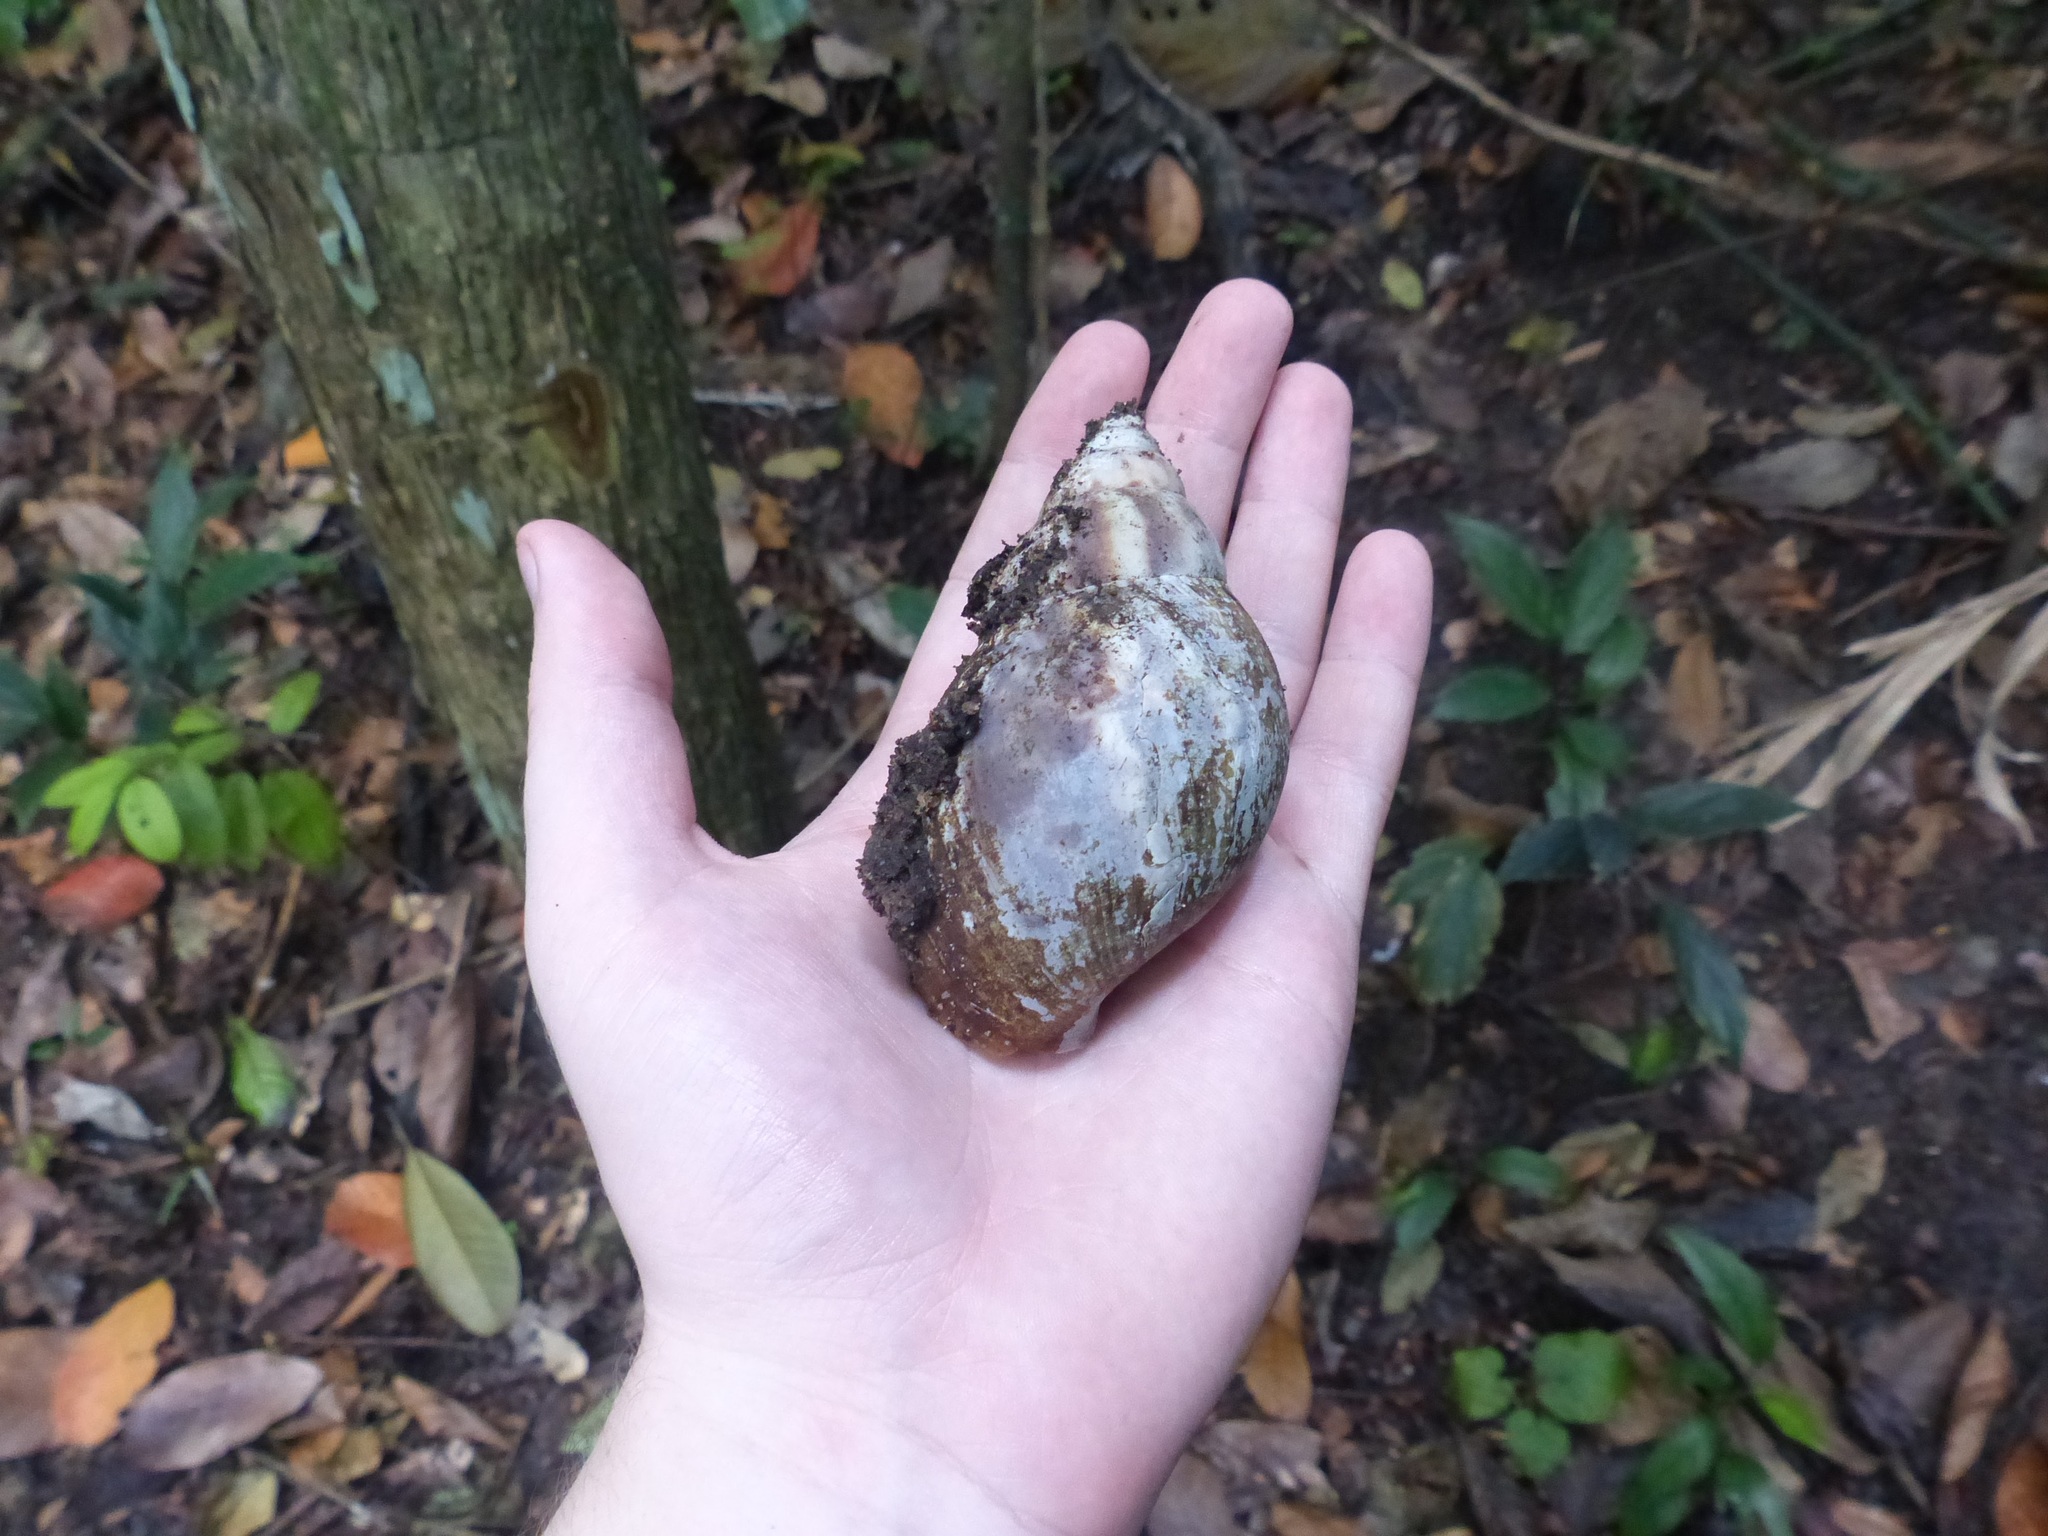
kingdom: Animalia
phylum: Mollusca
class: Gastropoda
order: Stylommatophora
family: Achatinidae
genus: Lissachatina
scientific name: Lissachatina fulica
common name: Giant african snail
